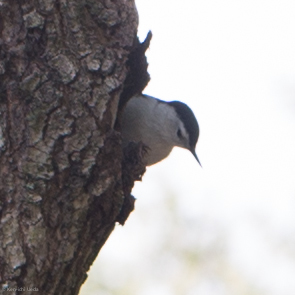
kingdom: Animalia
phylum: Chordata
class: Aves
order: Passeriformes
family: Sittidae
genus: Sitta
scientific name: Sitta carolinensis
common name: White-breasted nuthatch
